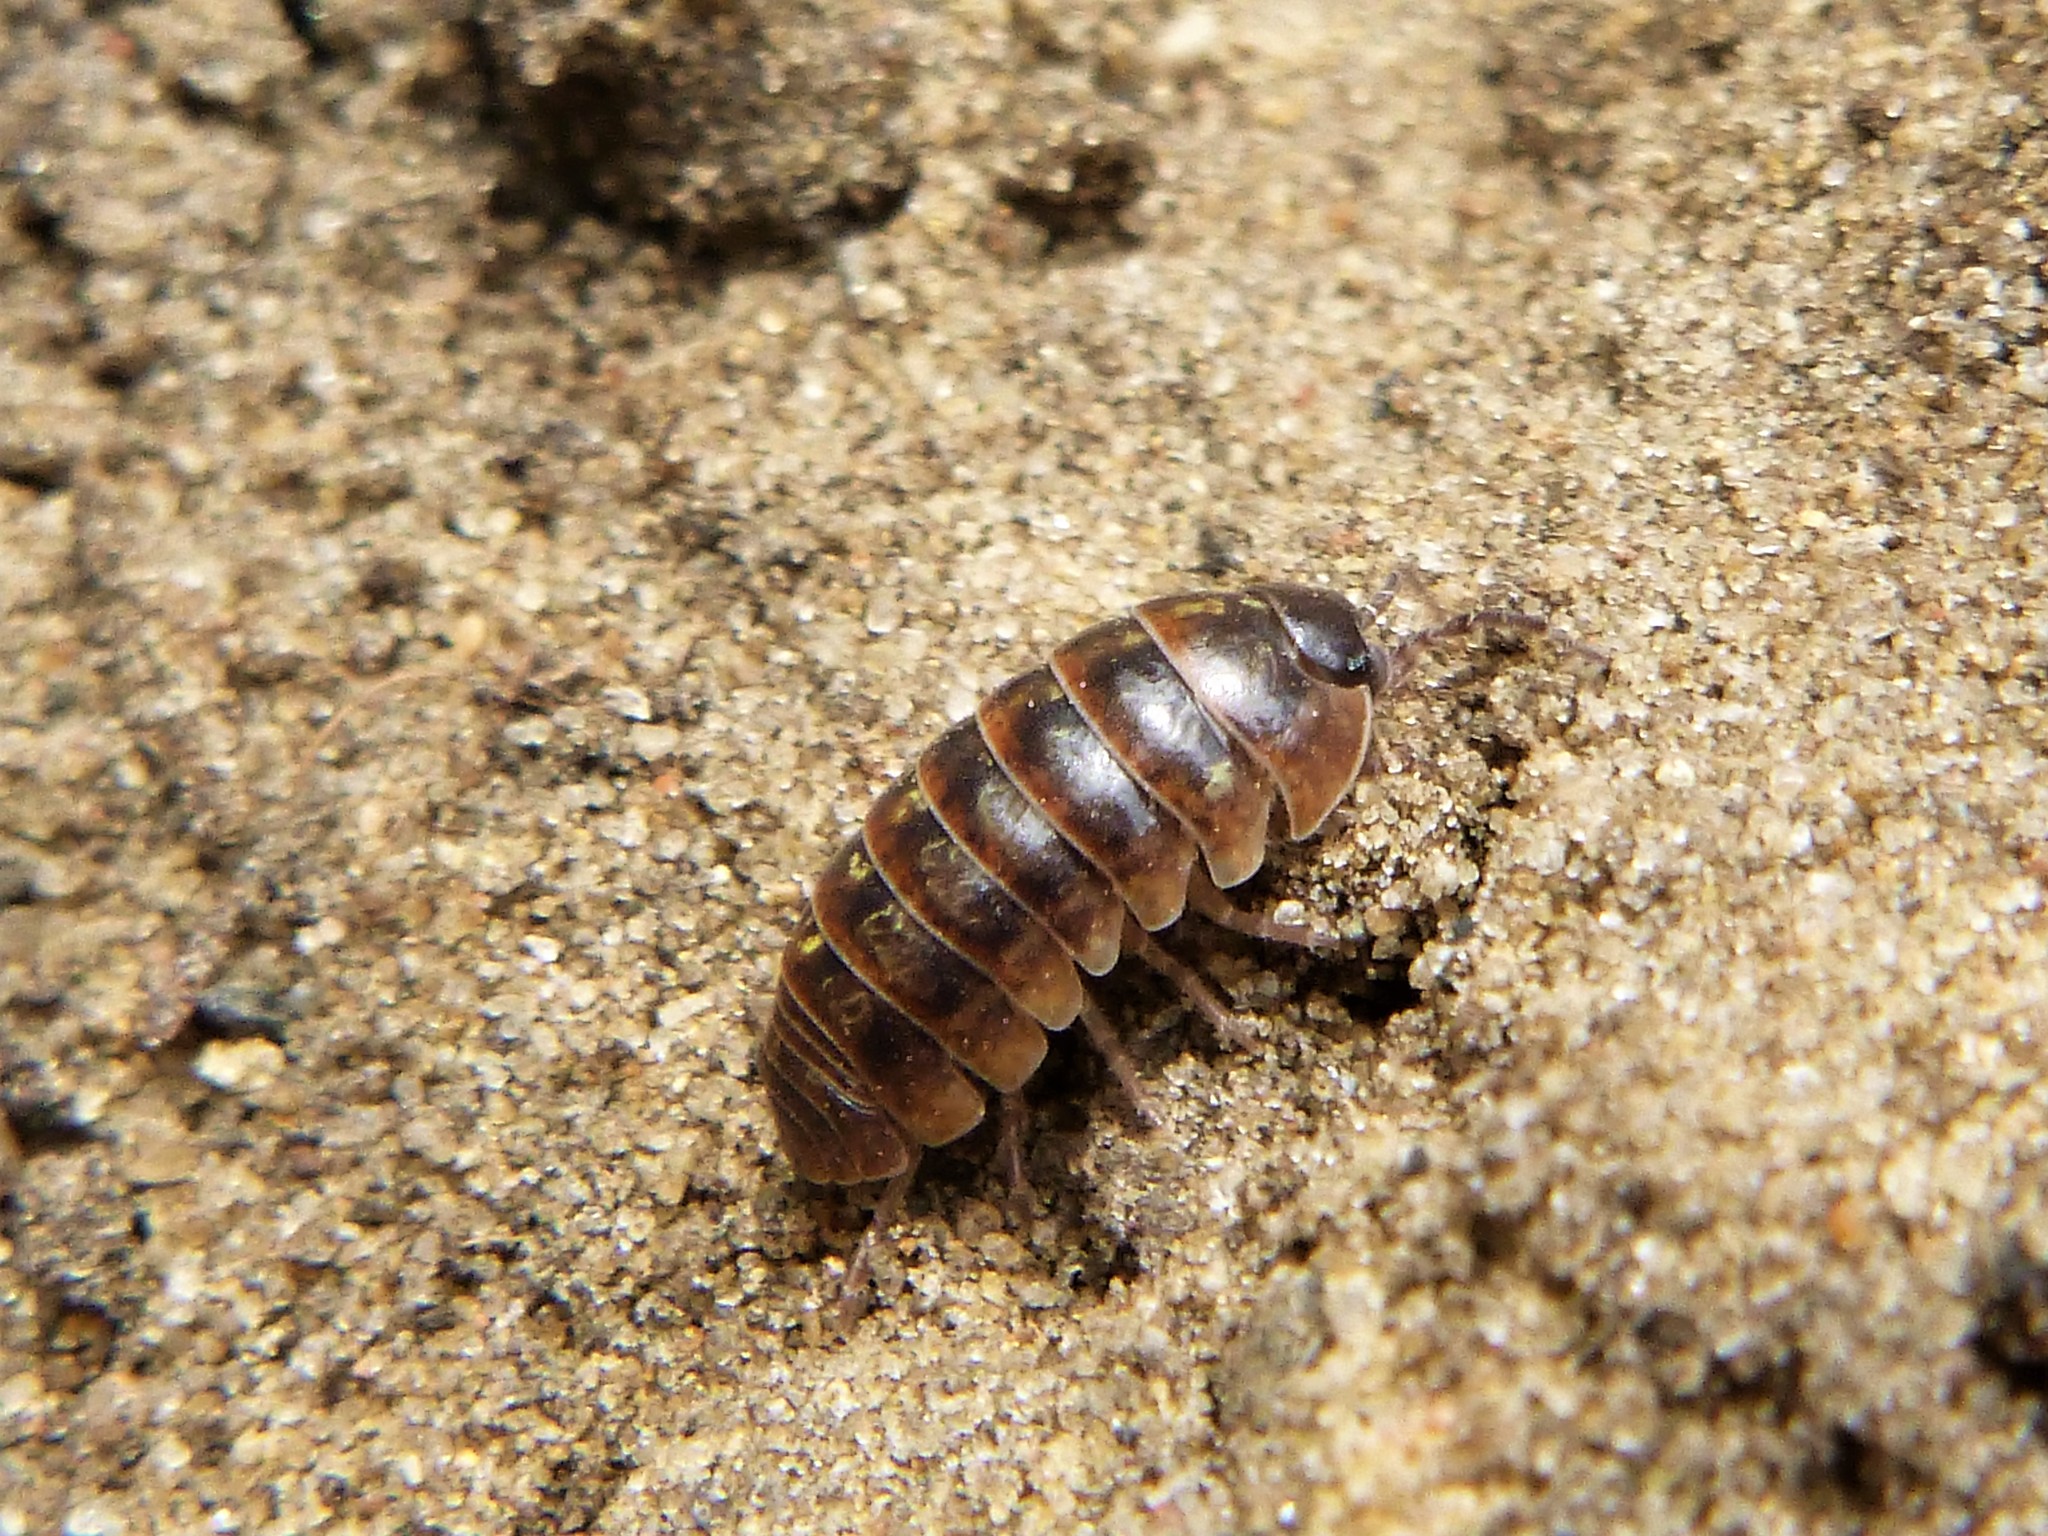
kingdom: Animalia
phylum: Arthropoda
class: Malacostraca
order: Isopoda
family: Armadillidiidae
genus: Armadillidium
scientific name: Armadillidium vulgare
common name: Common pill woodlouse
